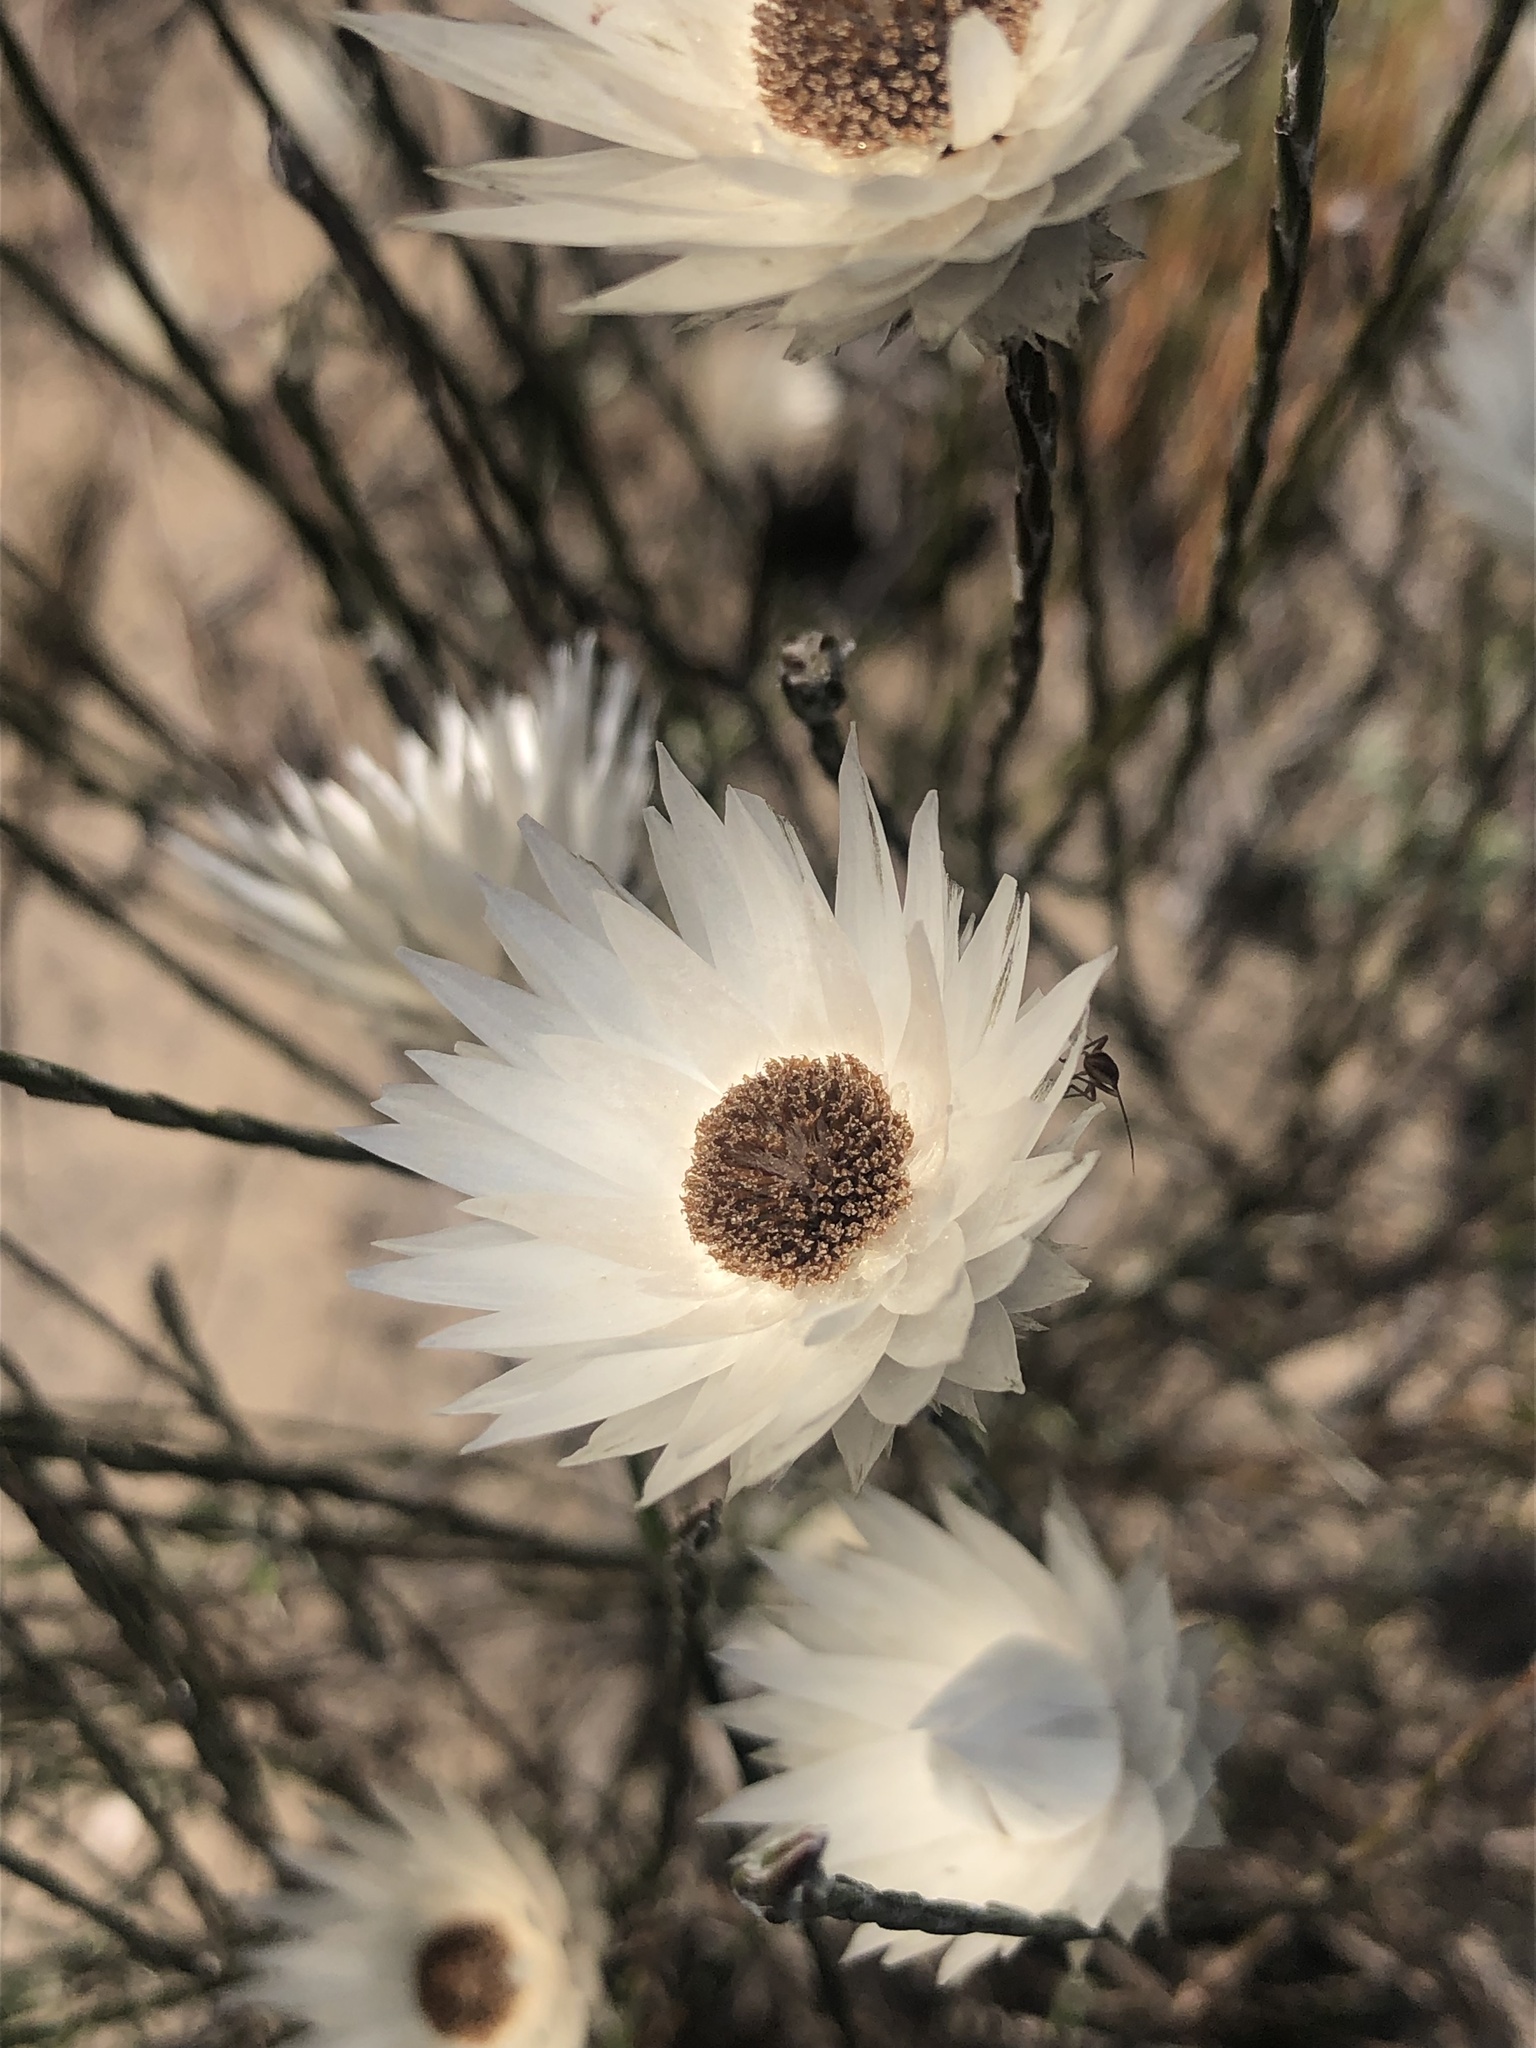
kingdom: Plantae
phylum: Tracheophyta
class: Magnoliopsida
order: Asterales
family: Asteraceae
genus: Edmondia
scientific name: Edmondia sesamoides
